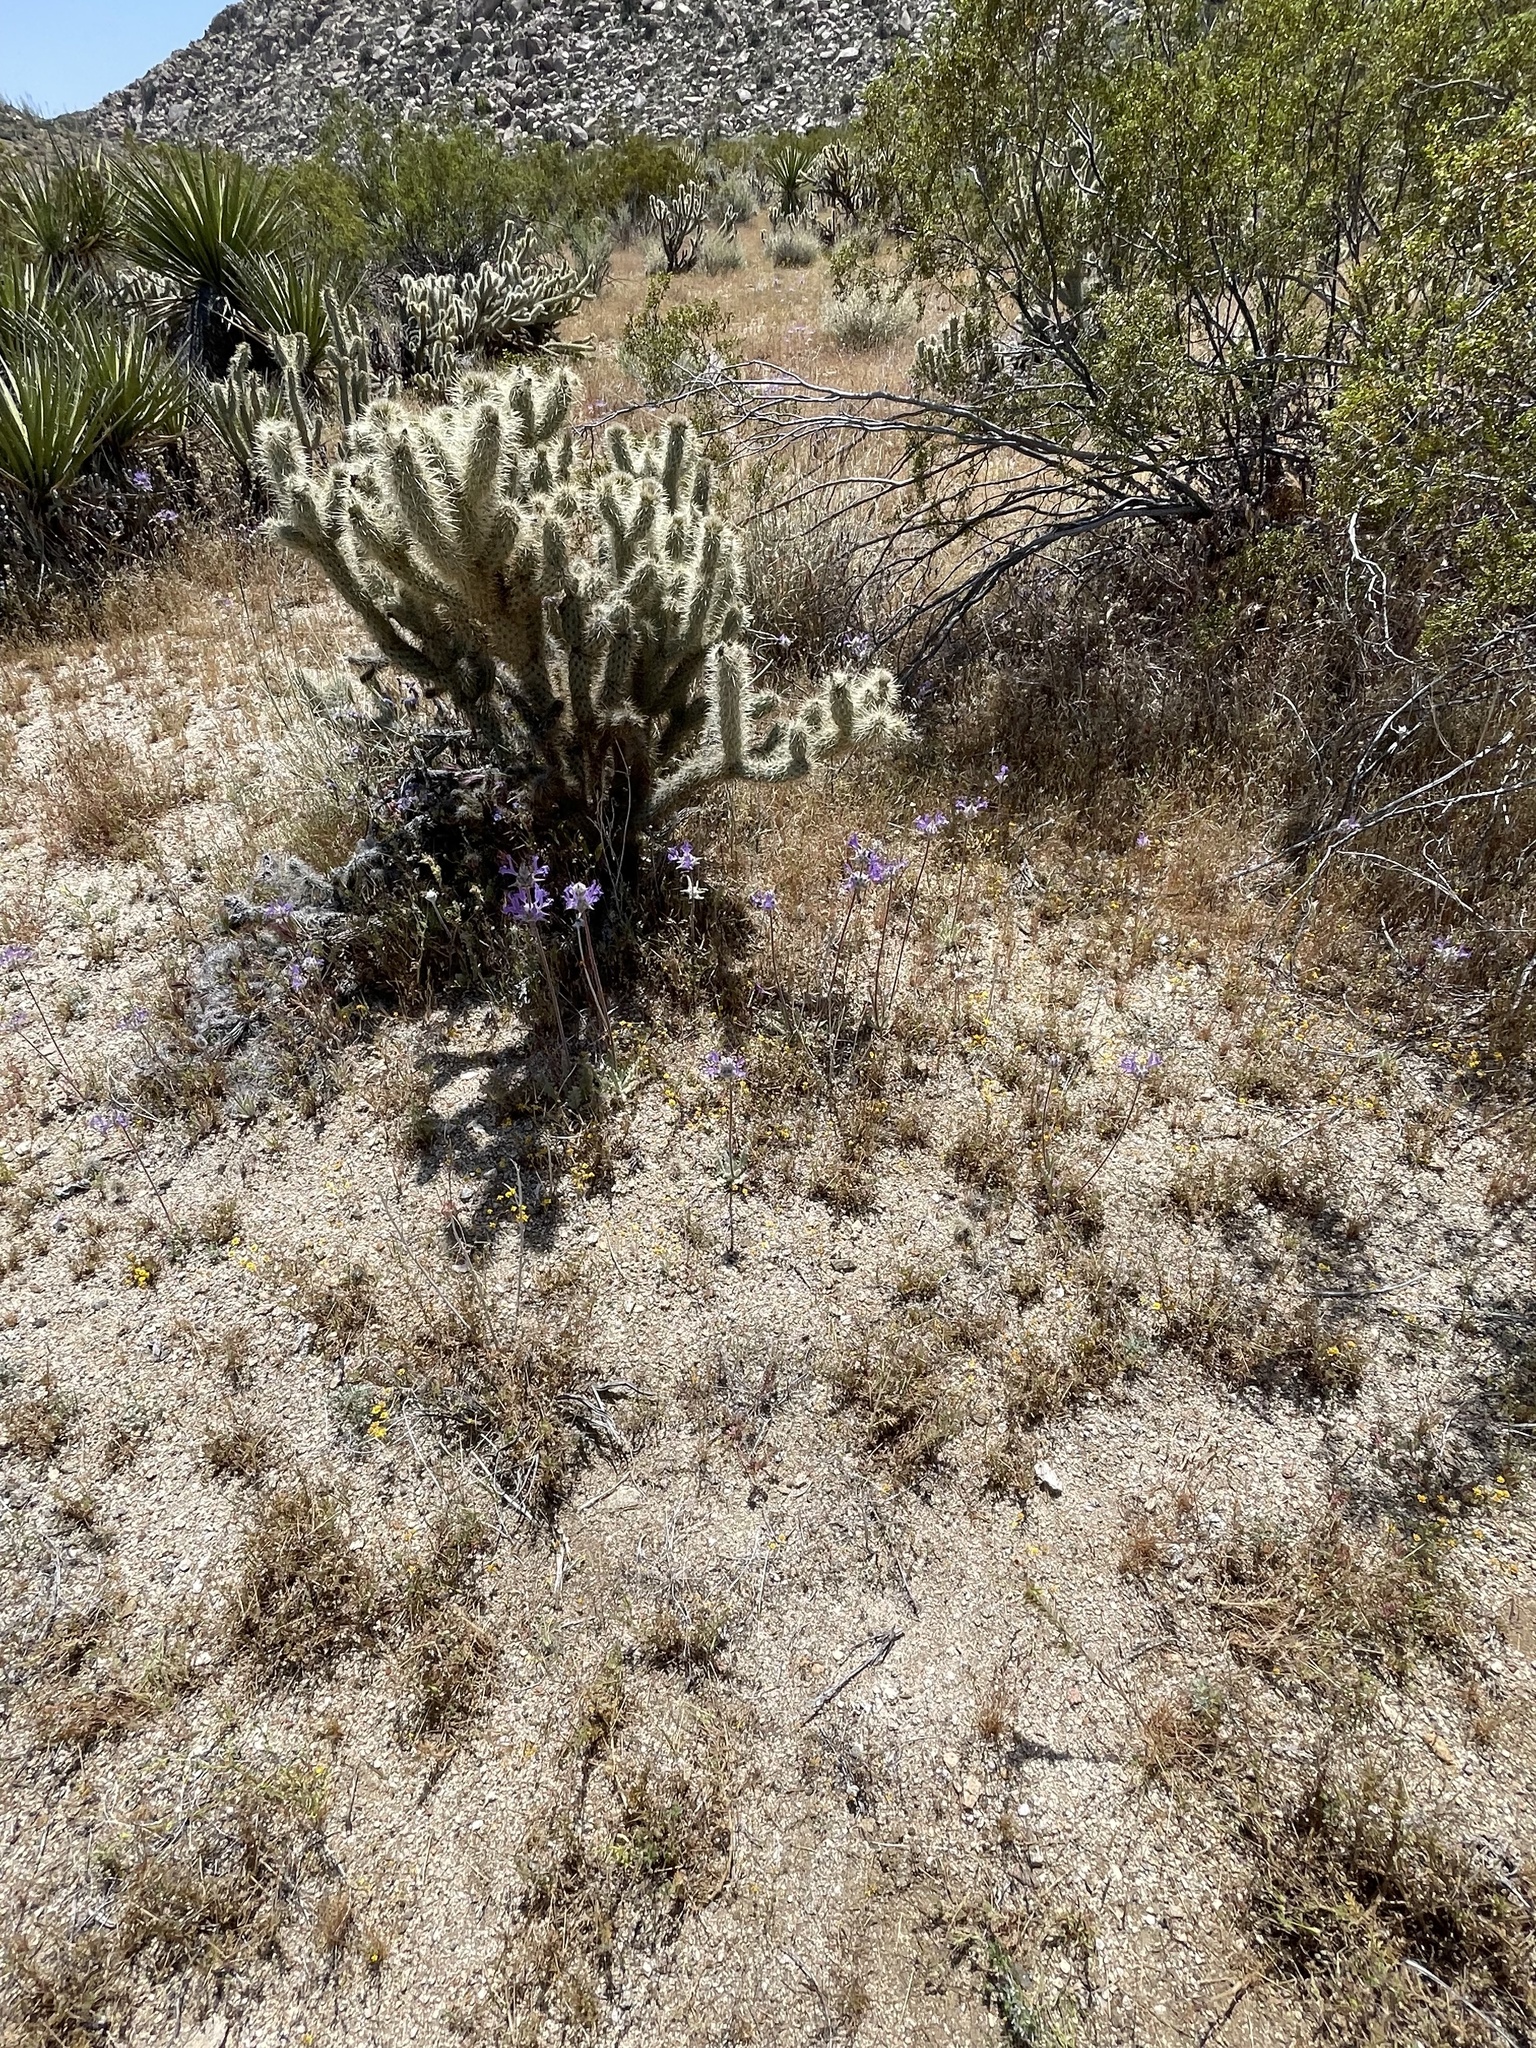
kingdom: Plantae
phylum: Tracheophyta
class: Magnoliopsida
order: Lamiales
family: Lamiaceae
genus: Salvia
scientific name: Salvia carduacea
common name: Thistle sage
